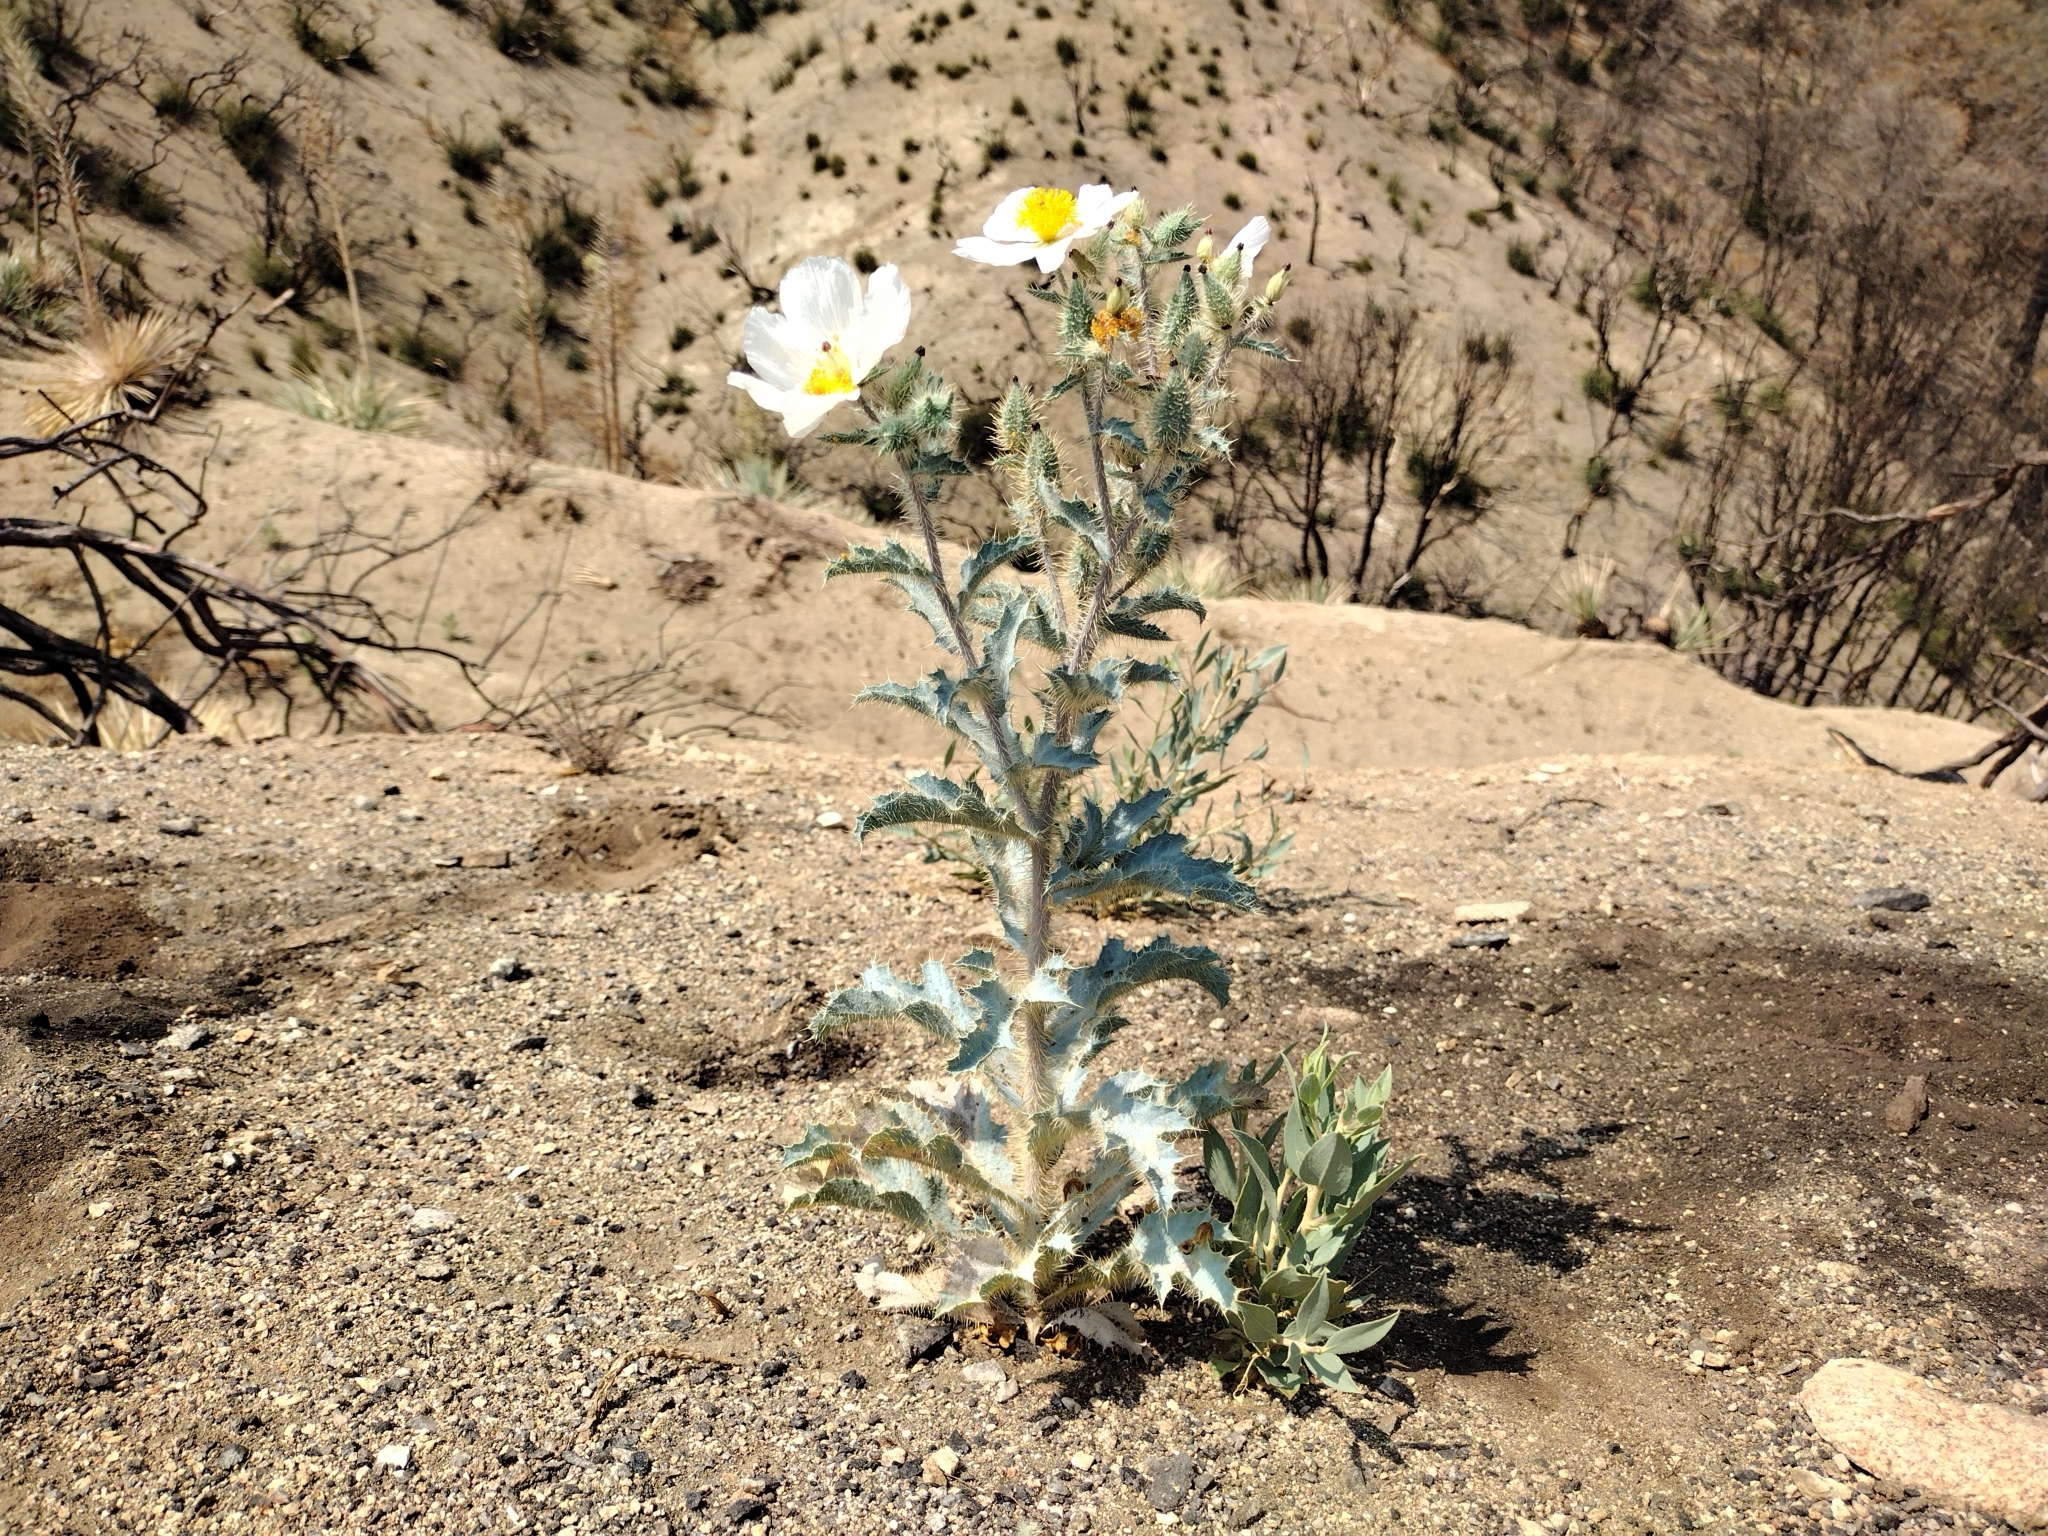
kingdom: Plantae
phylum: Tracheophyta
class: Magnoliopsida
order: Ranunculales
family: Papaveraceae
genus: Argemone
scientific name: Argemone munita
